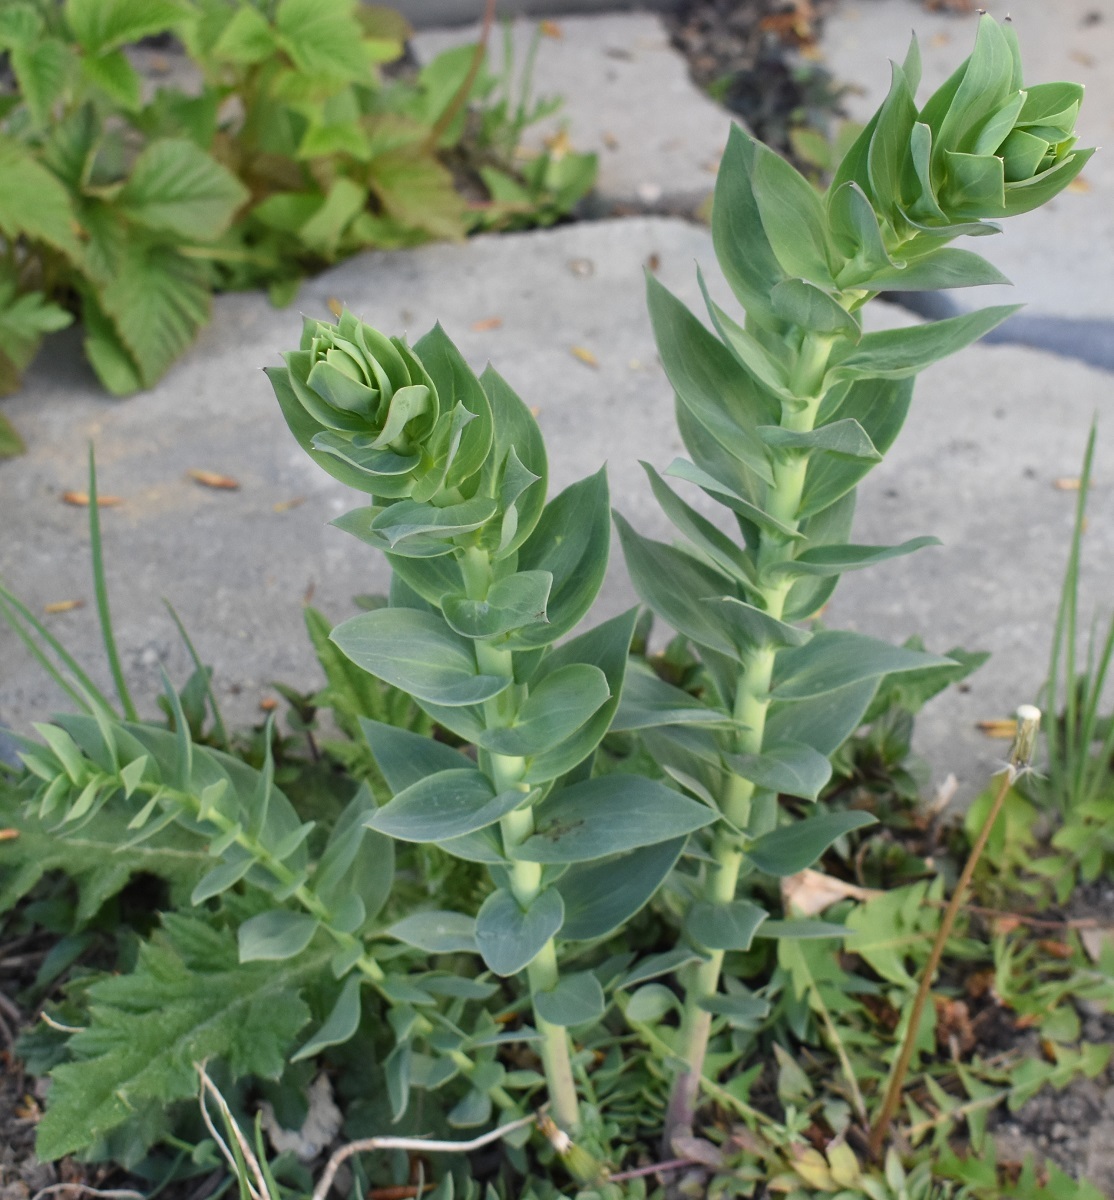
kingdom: Plantae
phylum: Tracheophyta
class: Magnoliopsida
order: Lamiales
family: Plantaginaceae
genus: Linaria
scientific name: Linaria dalmatica
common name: Dalmatian toadflax
